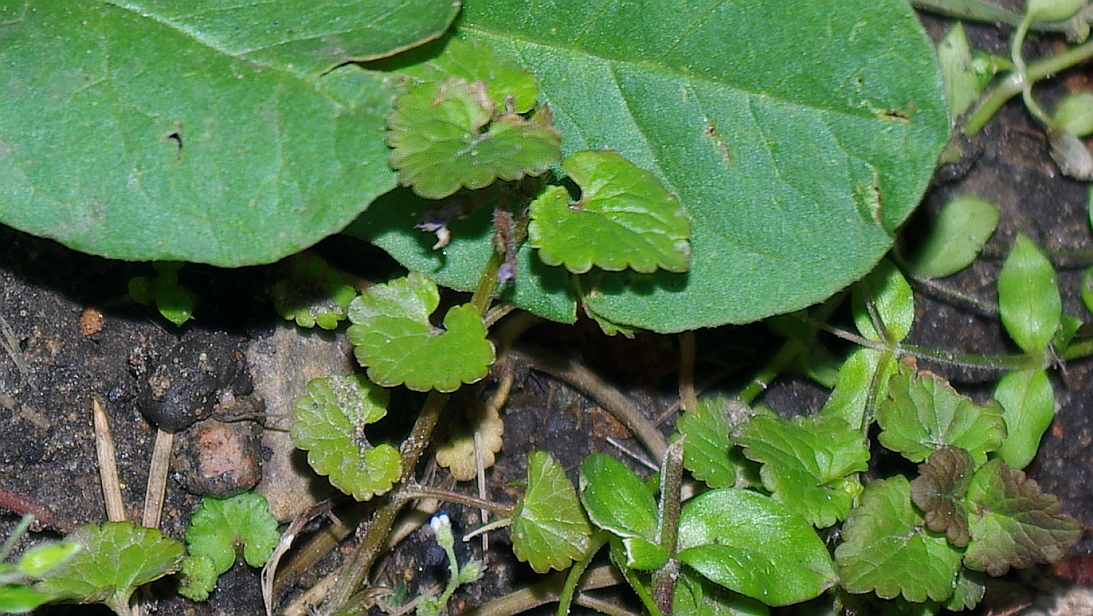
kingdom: Plantae
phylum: Tracheophyta
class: Magnoliopsida
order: Lamiales
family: Lamiaceae
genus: Glechoma
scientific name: Glechoma hederacea
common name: Ground ivy
